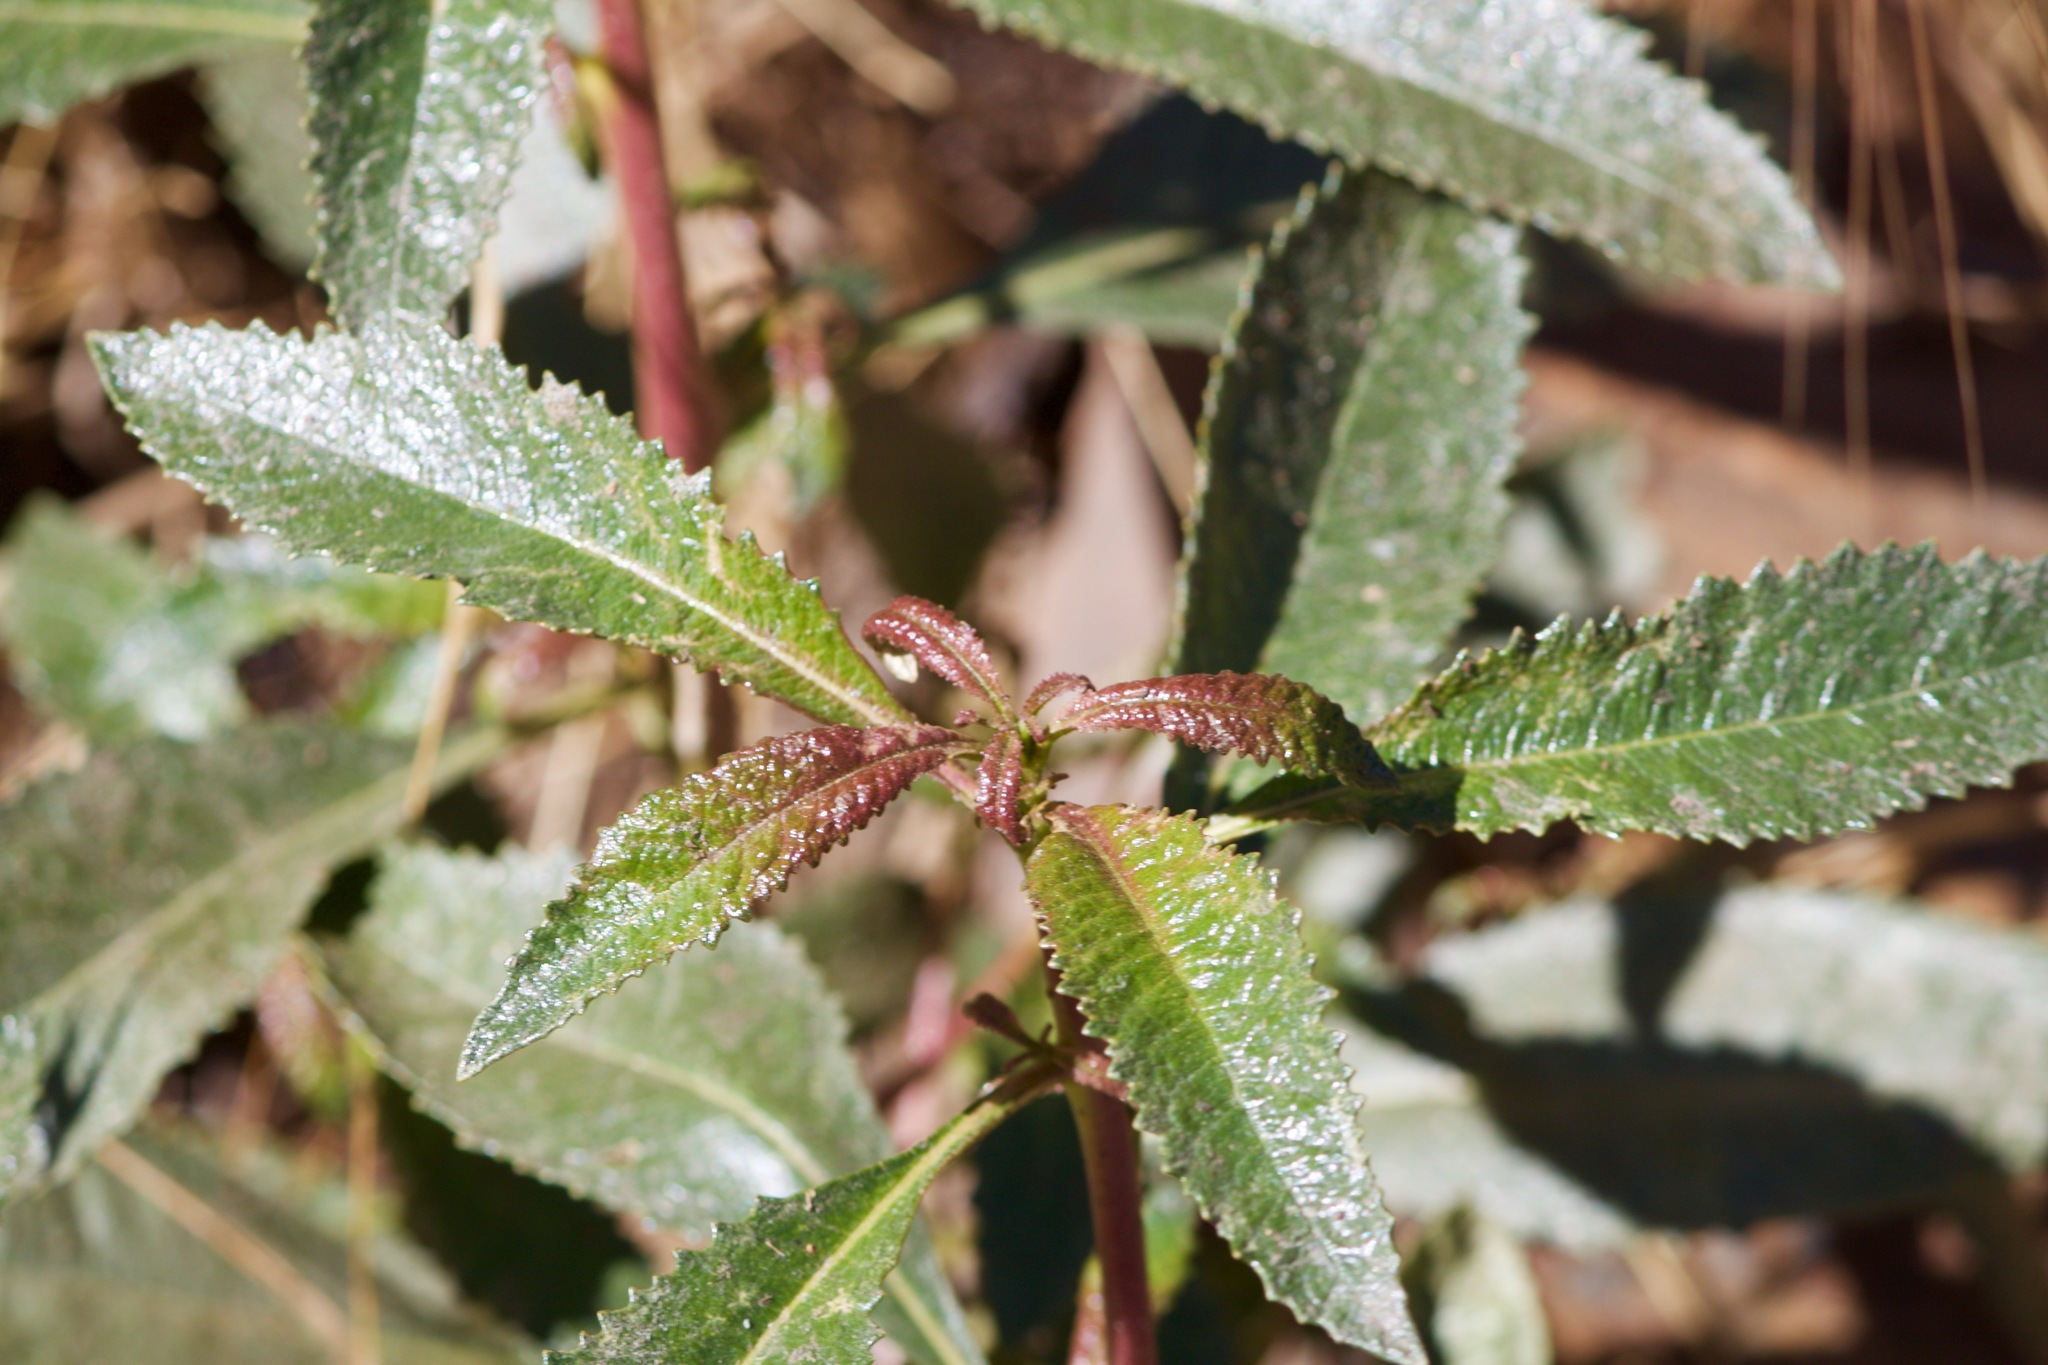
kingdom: Plantae
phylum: Tracheophyta
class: Magnoliopsida
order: Boraginales
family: Namaceae
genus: Eriodictyon
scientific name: Eriodictyon californicum
